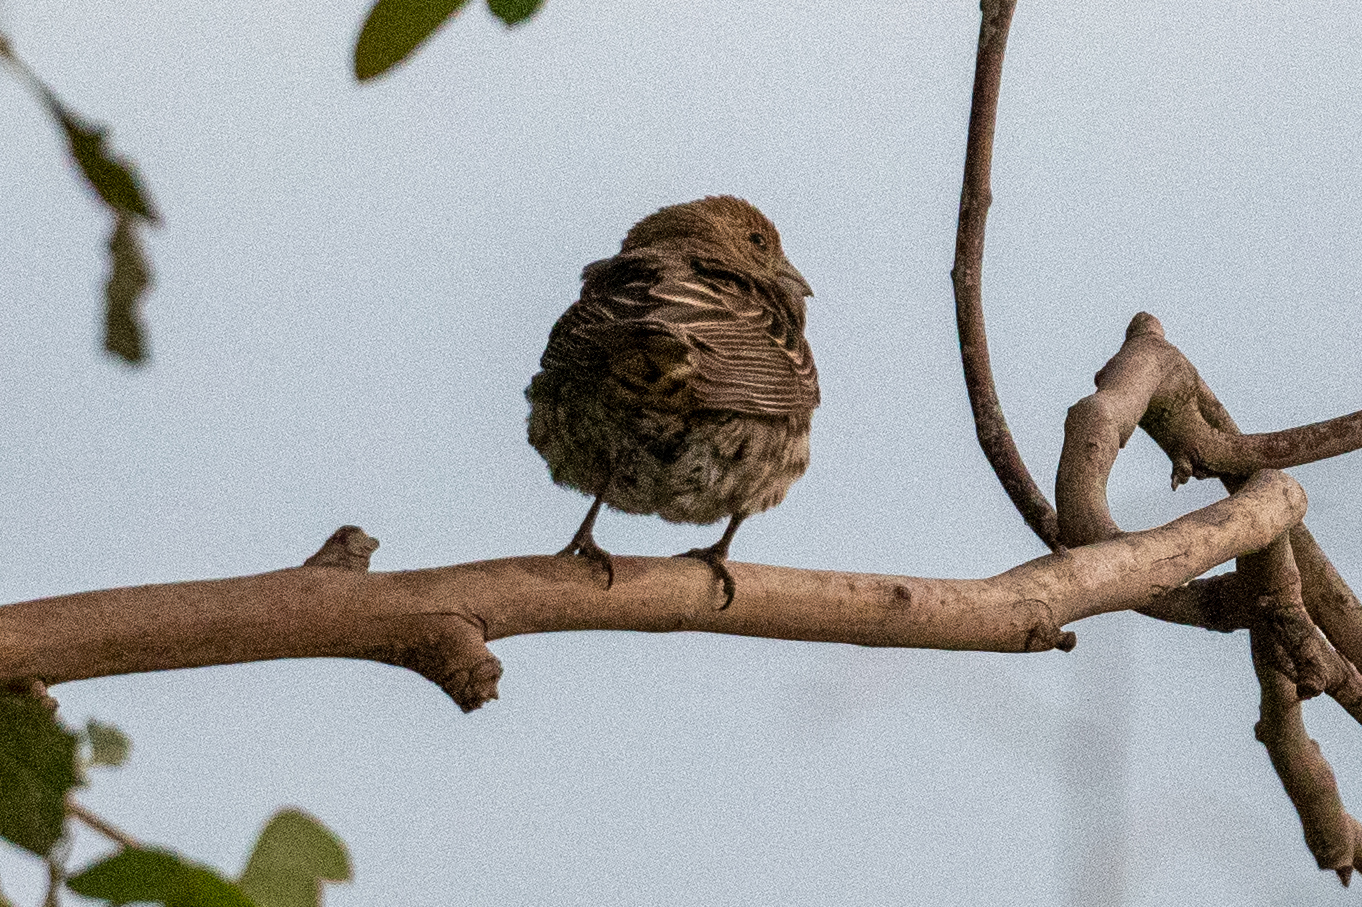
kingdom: Animalia
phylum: Chordata
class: Aves
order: Passeriformes
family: Fringillidae
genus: Haemorhous
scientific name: Haemorhous mexicanus
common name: House finch
